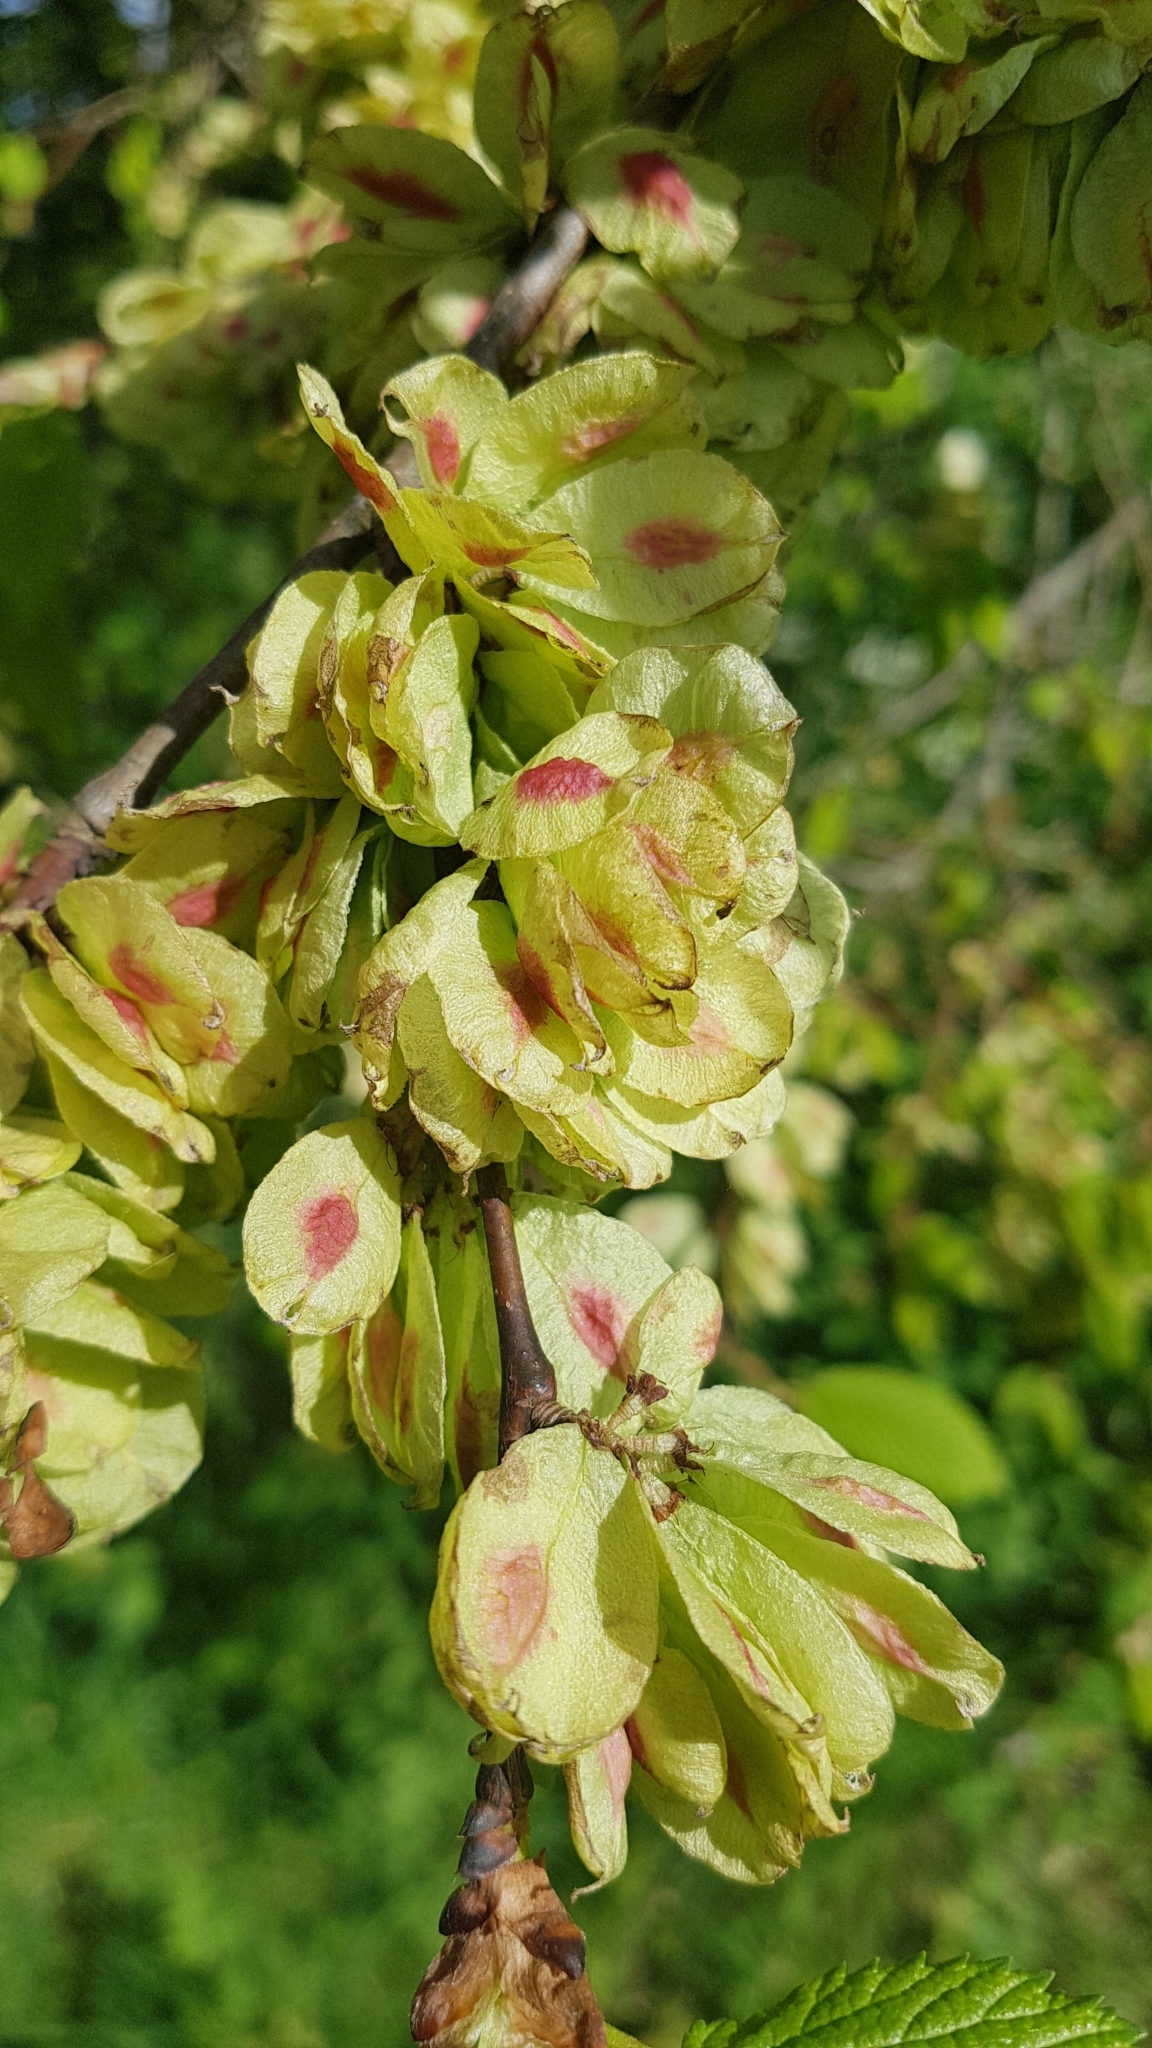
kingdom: Plantae
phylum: Tracheophyta
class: Magnoliopsida
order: Rosales
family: Ulmaceae
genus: Ulmus
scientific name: Ulmus glabra
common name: Wych elm
